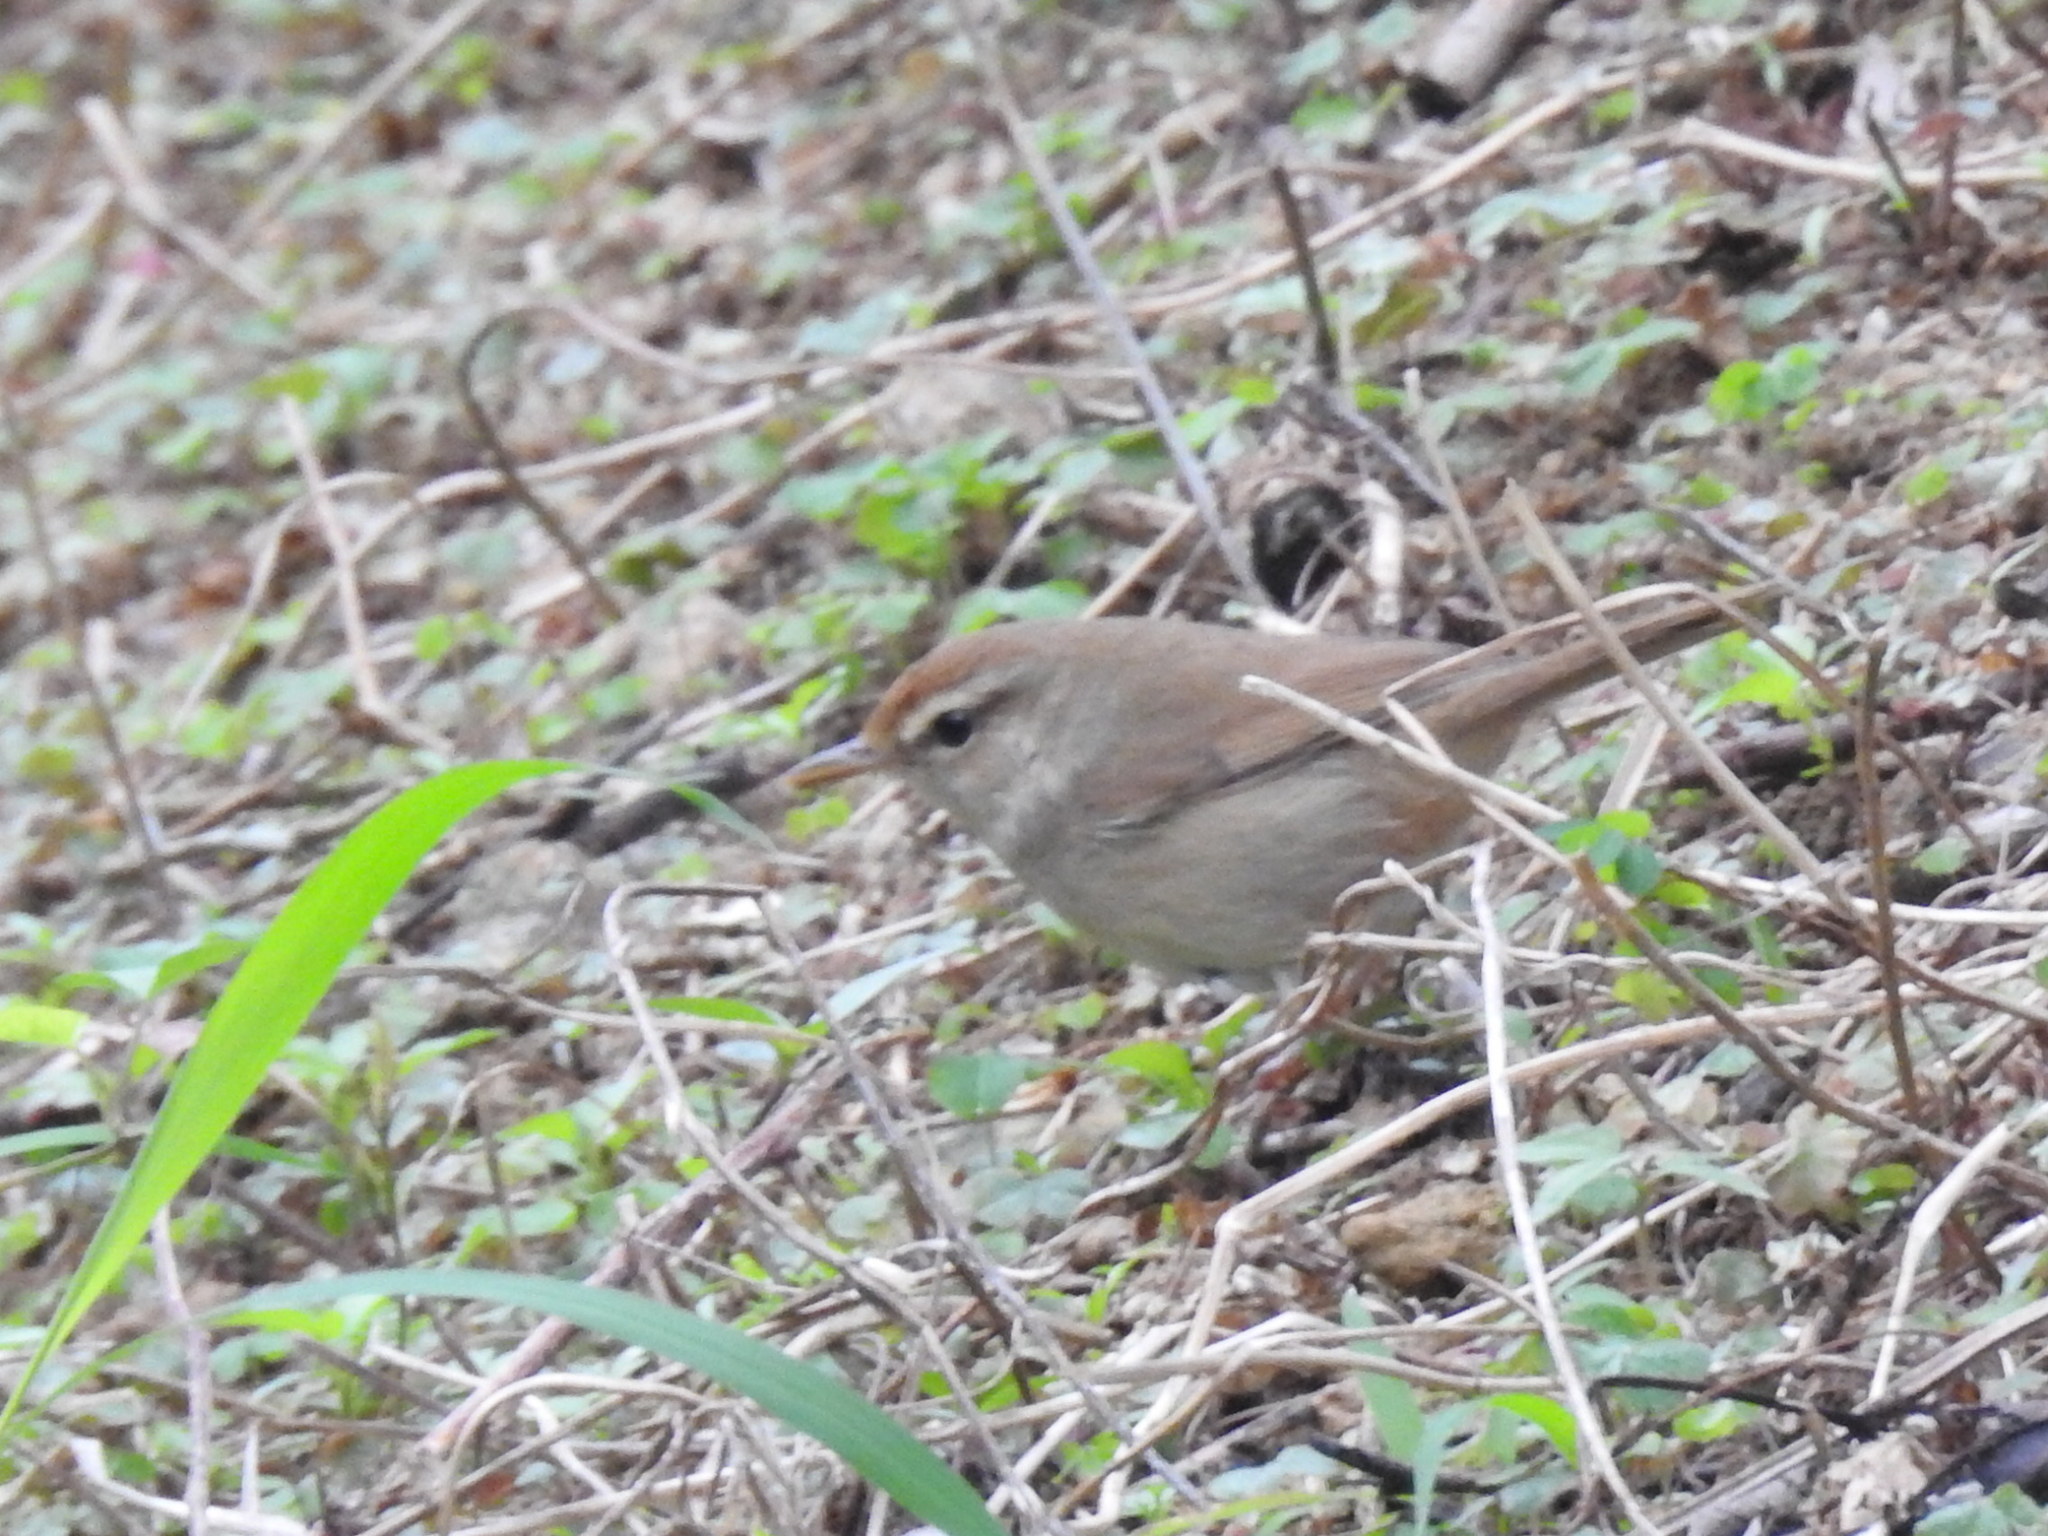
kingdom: Animalia
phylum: Chordata
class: Aves
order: Passeriformes
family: Cettiidae
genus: Horornis
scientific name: Horornis borealis
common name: Manchurian bush warbler
